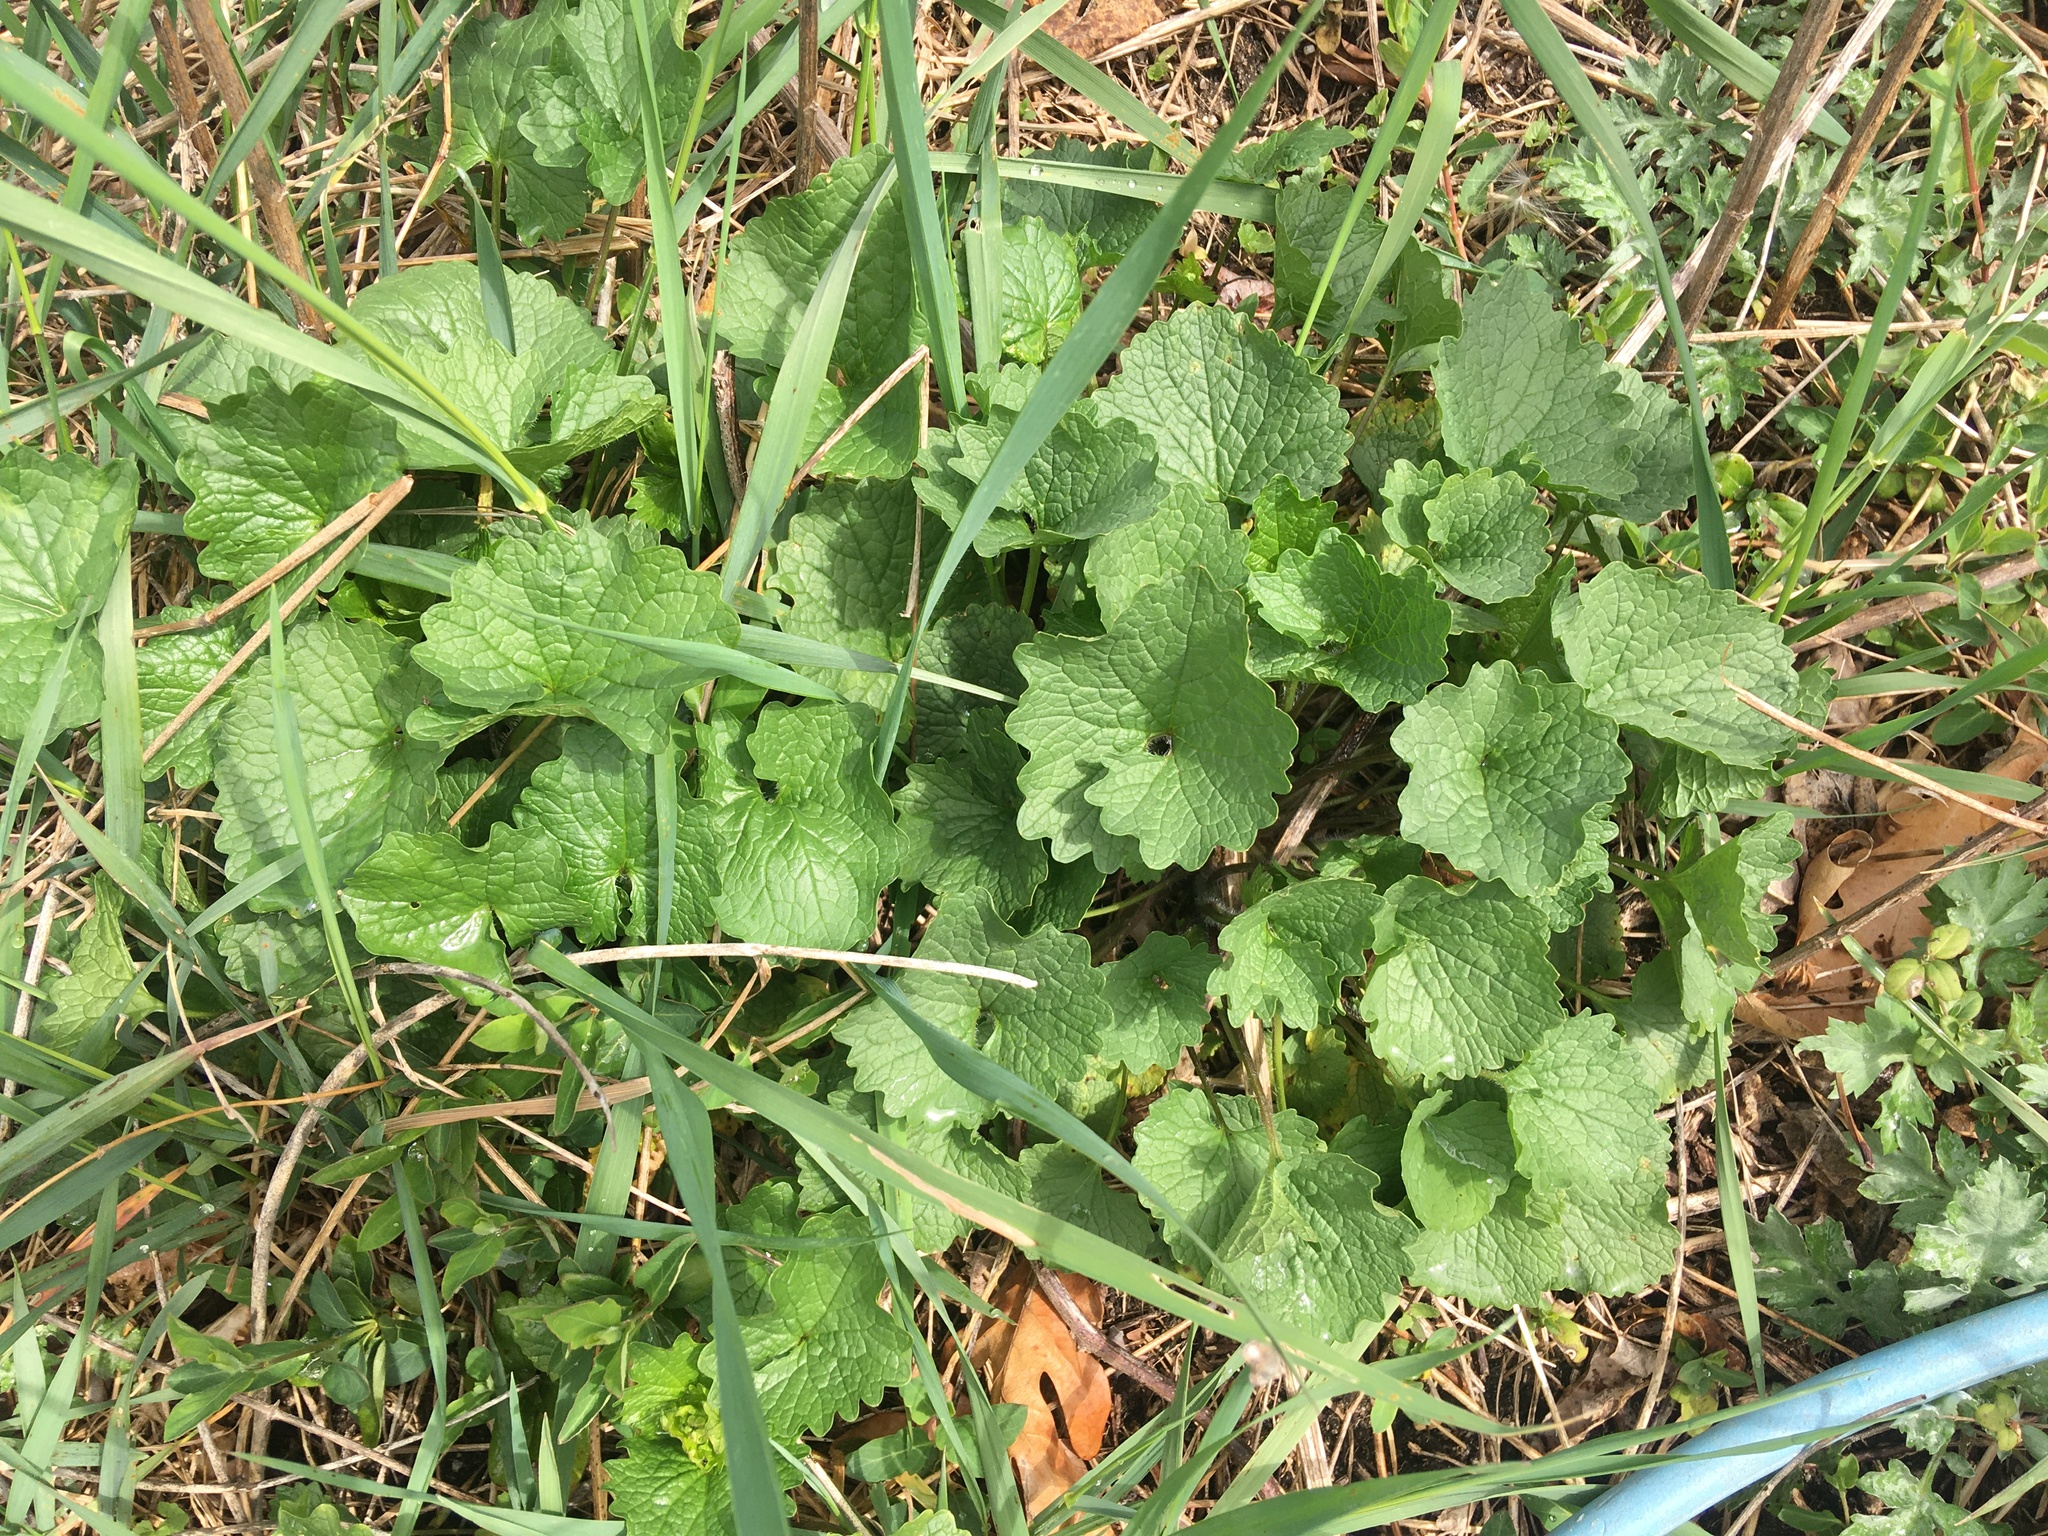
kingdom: Plantae
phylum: Tracheophyta
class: Magnoliopsida
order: Brassicales
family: Brassicaceae
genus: Alliaria
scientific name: Alliaria petiolata
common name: Garlic mustard
